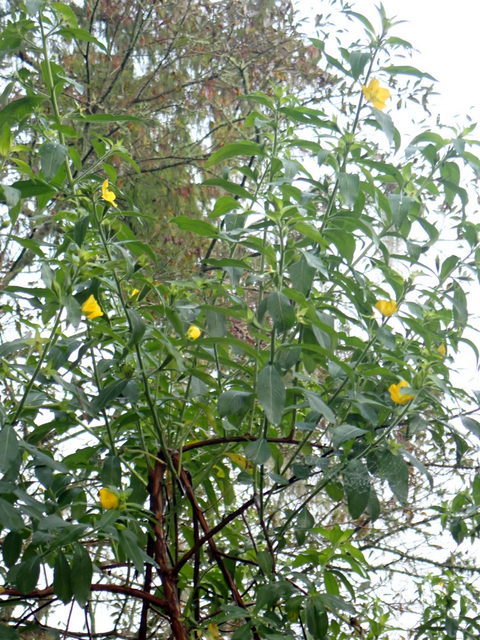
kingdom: Plantae
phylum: Tracheophyta
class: Magnoliopsida
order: Myrtales
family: Onagraceae
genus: Ludwigia
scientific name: Ludwigia peruviana
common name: Peruvian primrose-willow
